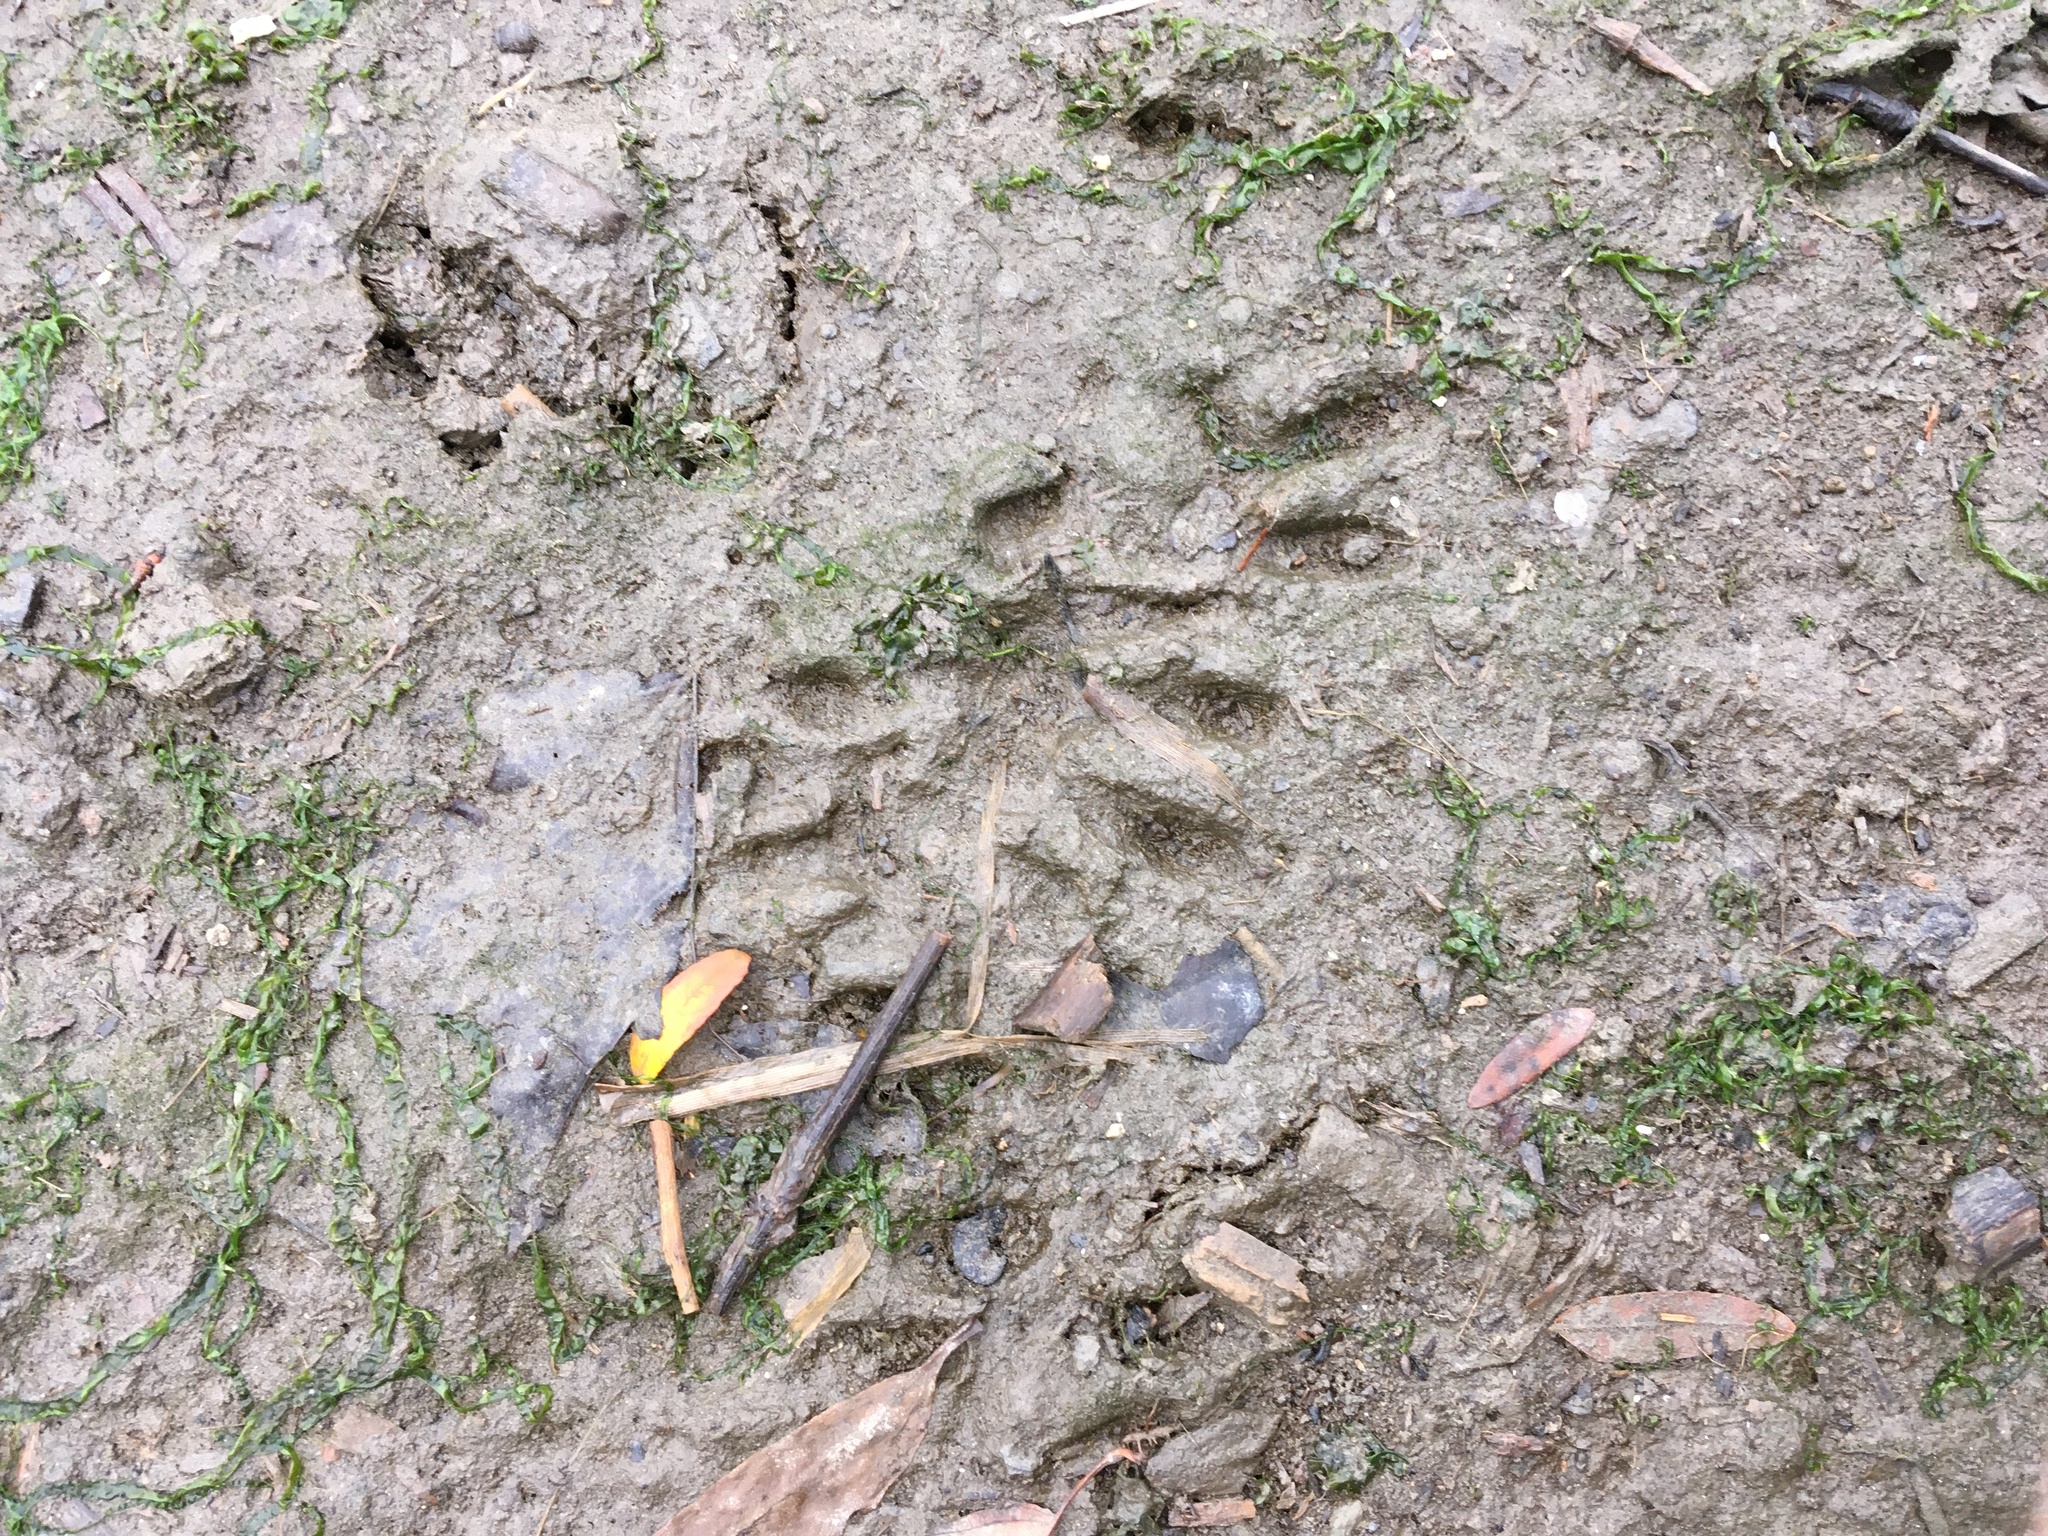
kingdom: Animalia
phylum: Chordata
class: Mammalia
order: Carnivora
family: Procyonidae
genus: Procyon
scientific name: Procyon lotor
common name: Raccoon
